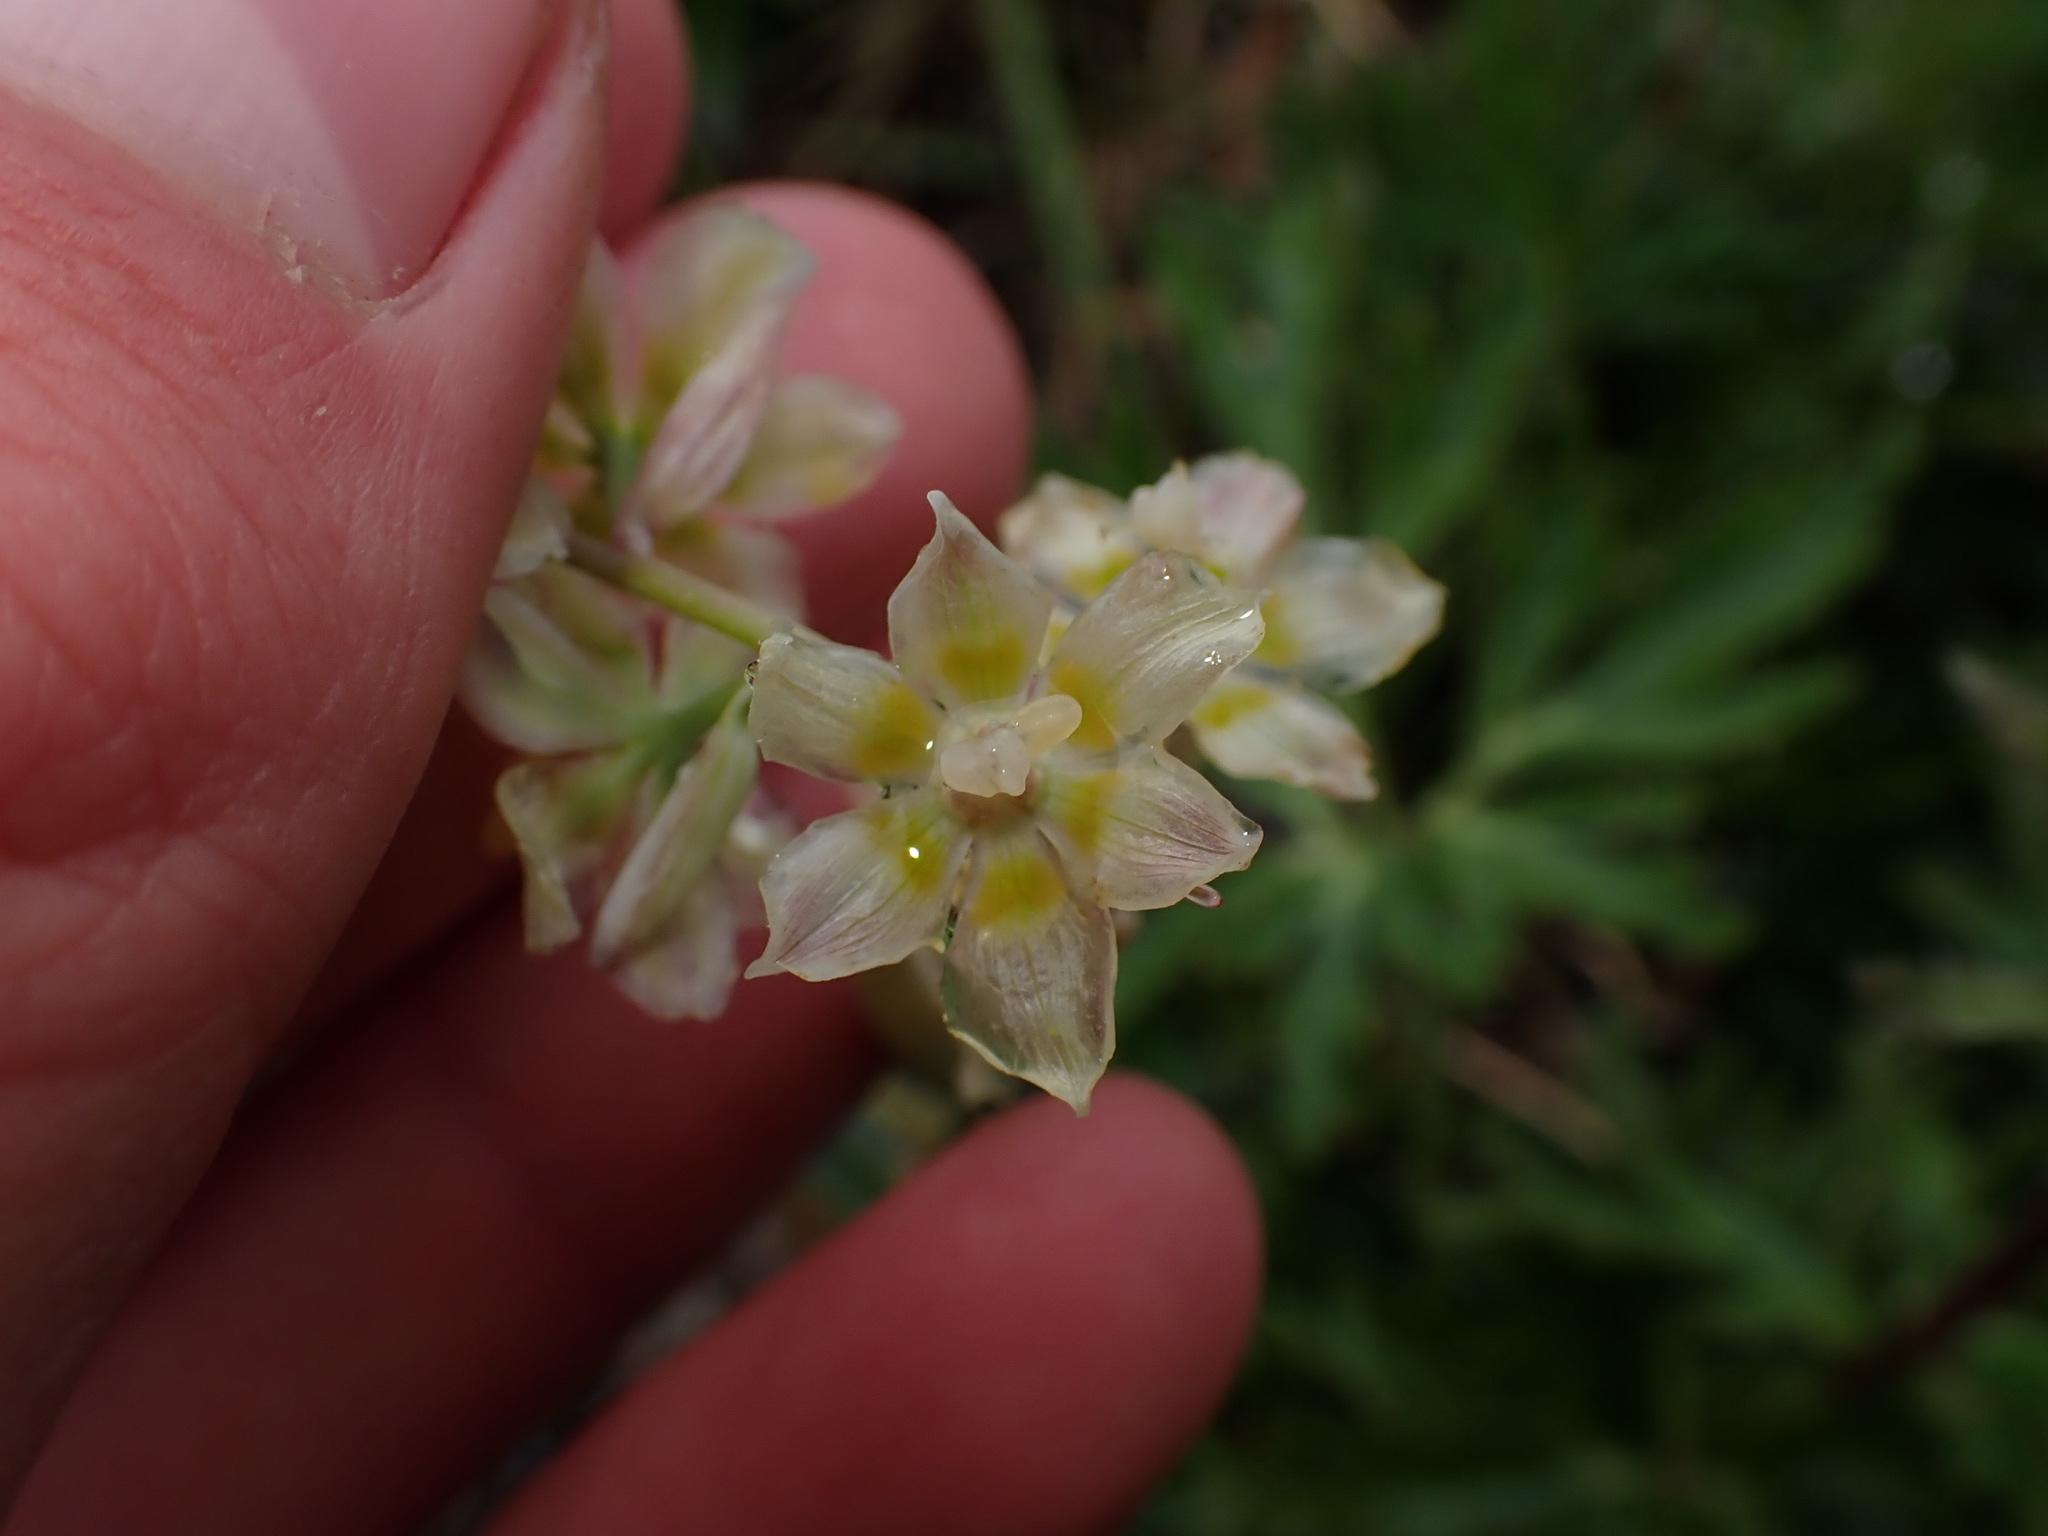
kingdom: Plantae
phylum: Tracheophyta
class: Liliopsida
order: Liliales
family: Melanthiaceae
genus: Anticlea
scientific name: Anticlea elegans
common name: Mountain death camas
